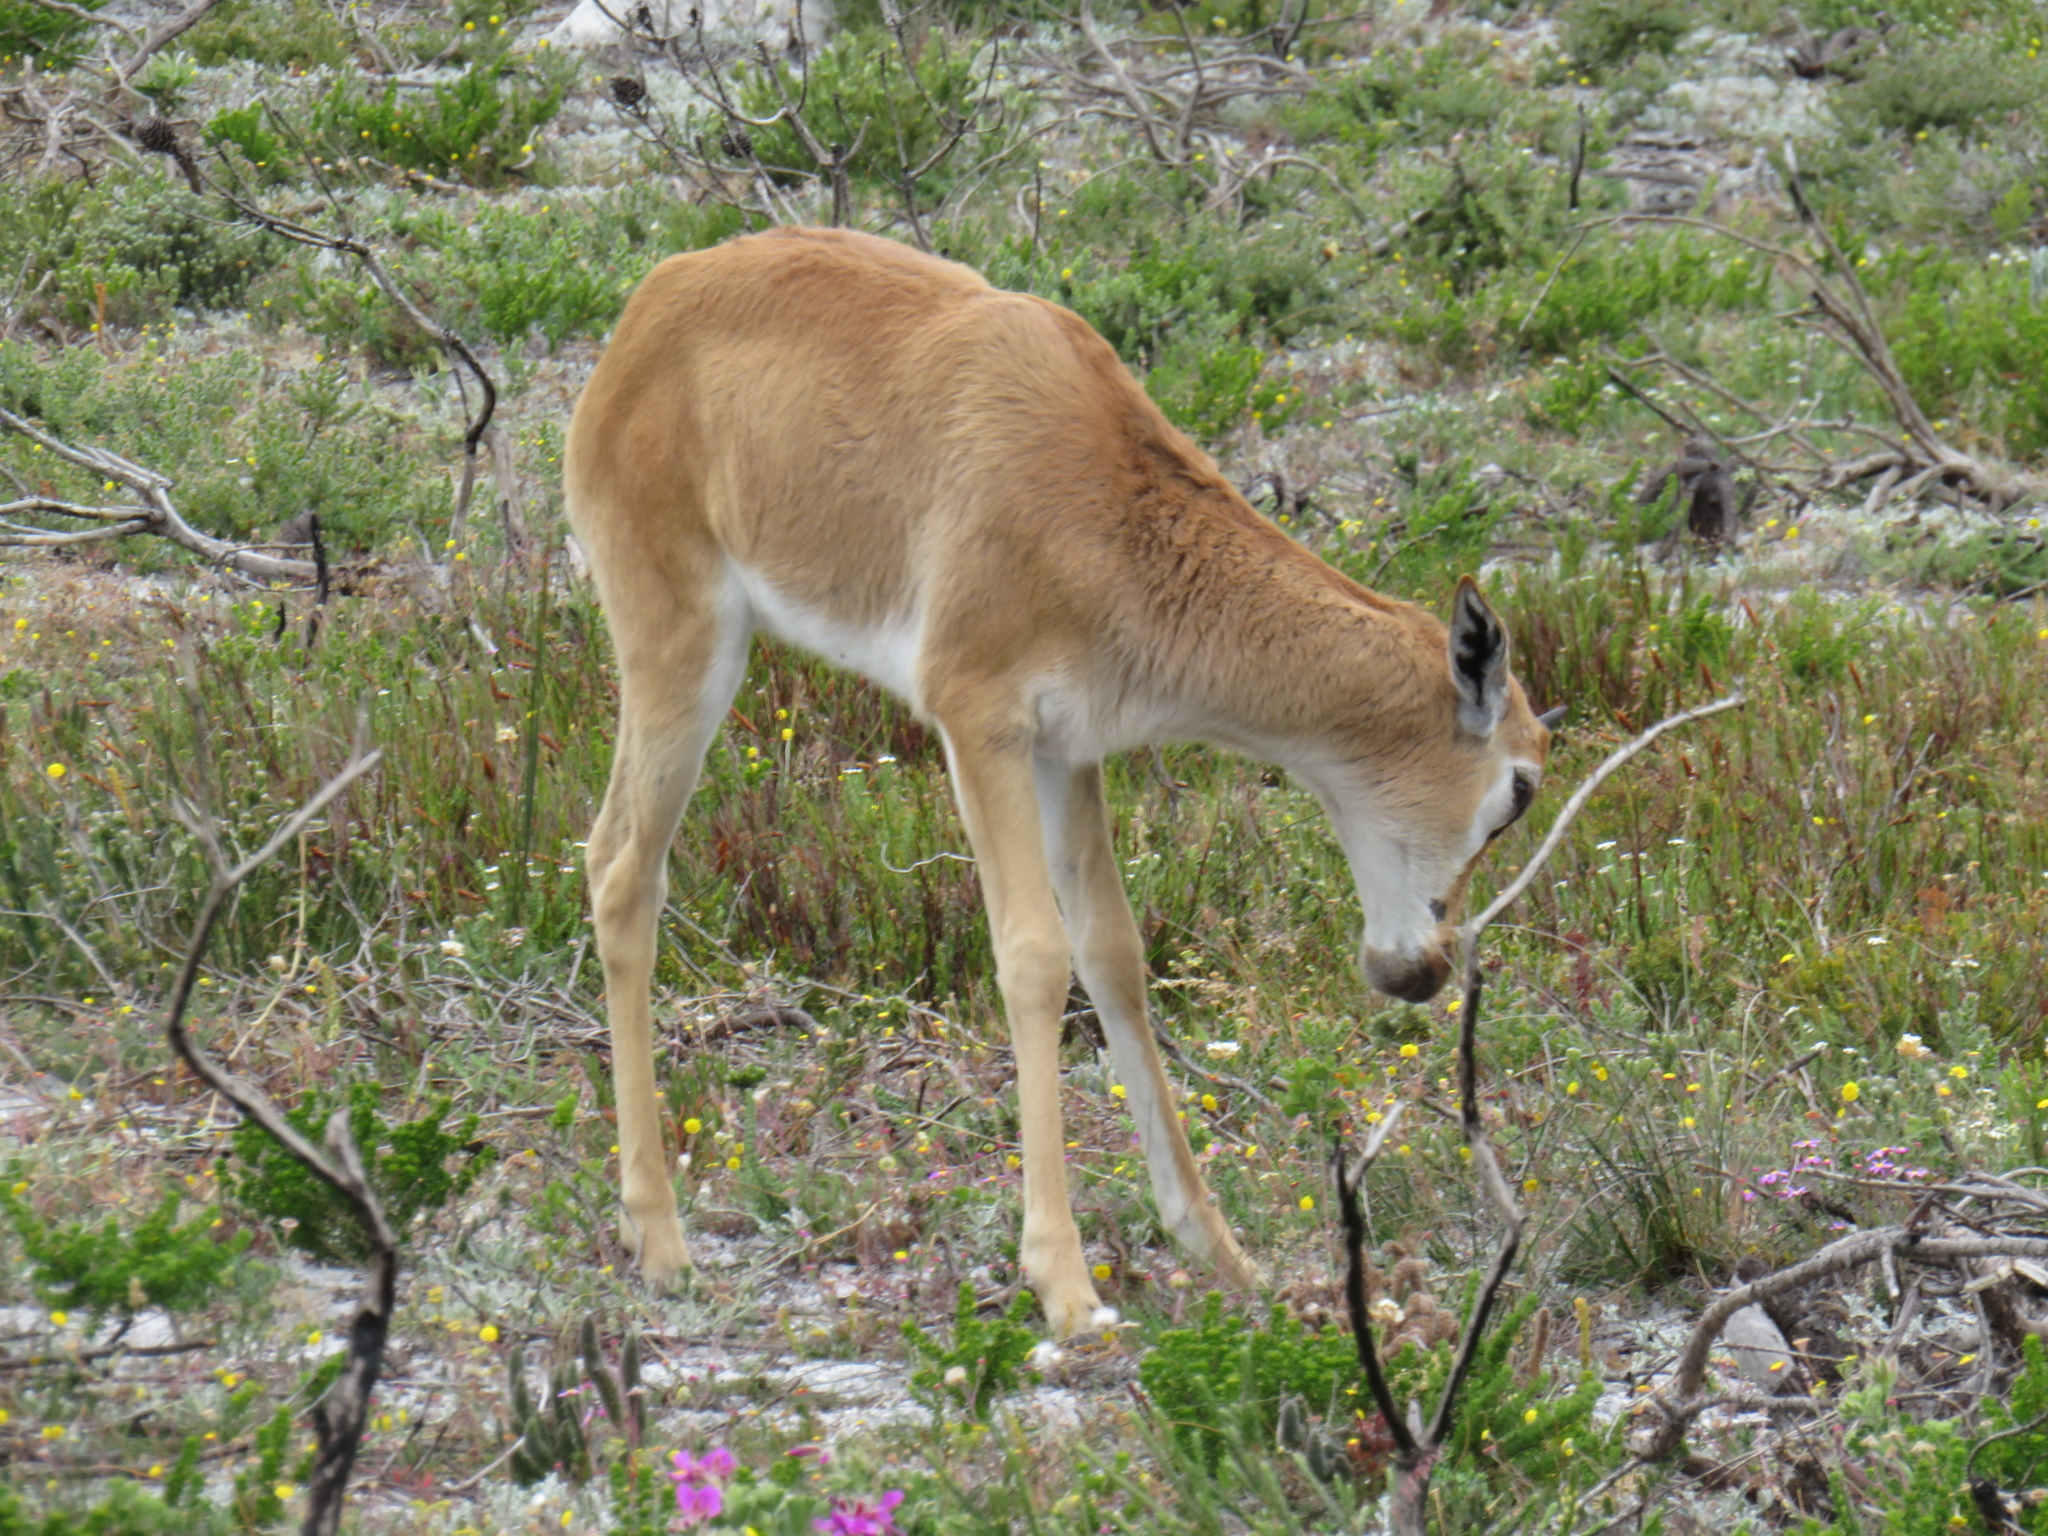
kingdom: Animalia
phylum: Chordata
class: Mammalia
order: Artiodactyla
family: Bovidae
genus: Damaliscus
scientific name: Damaliscus pygargus
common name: Bontebok
